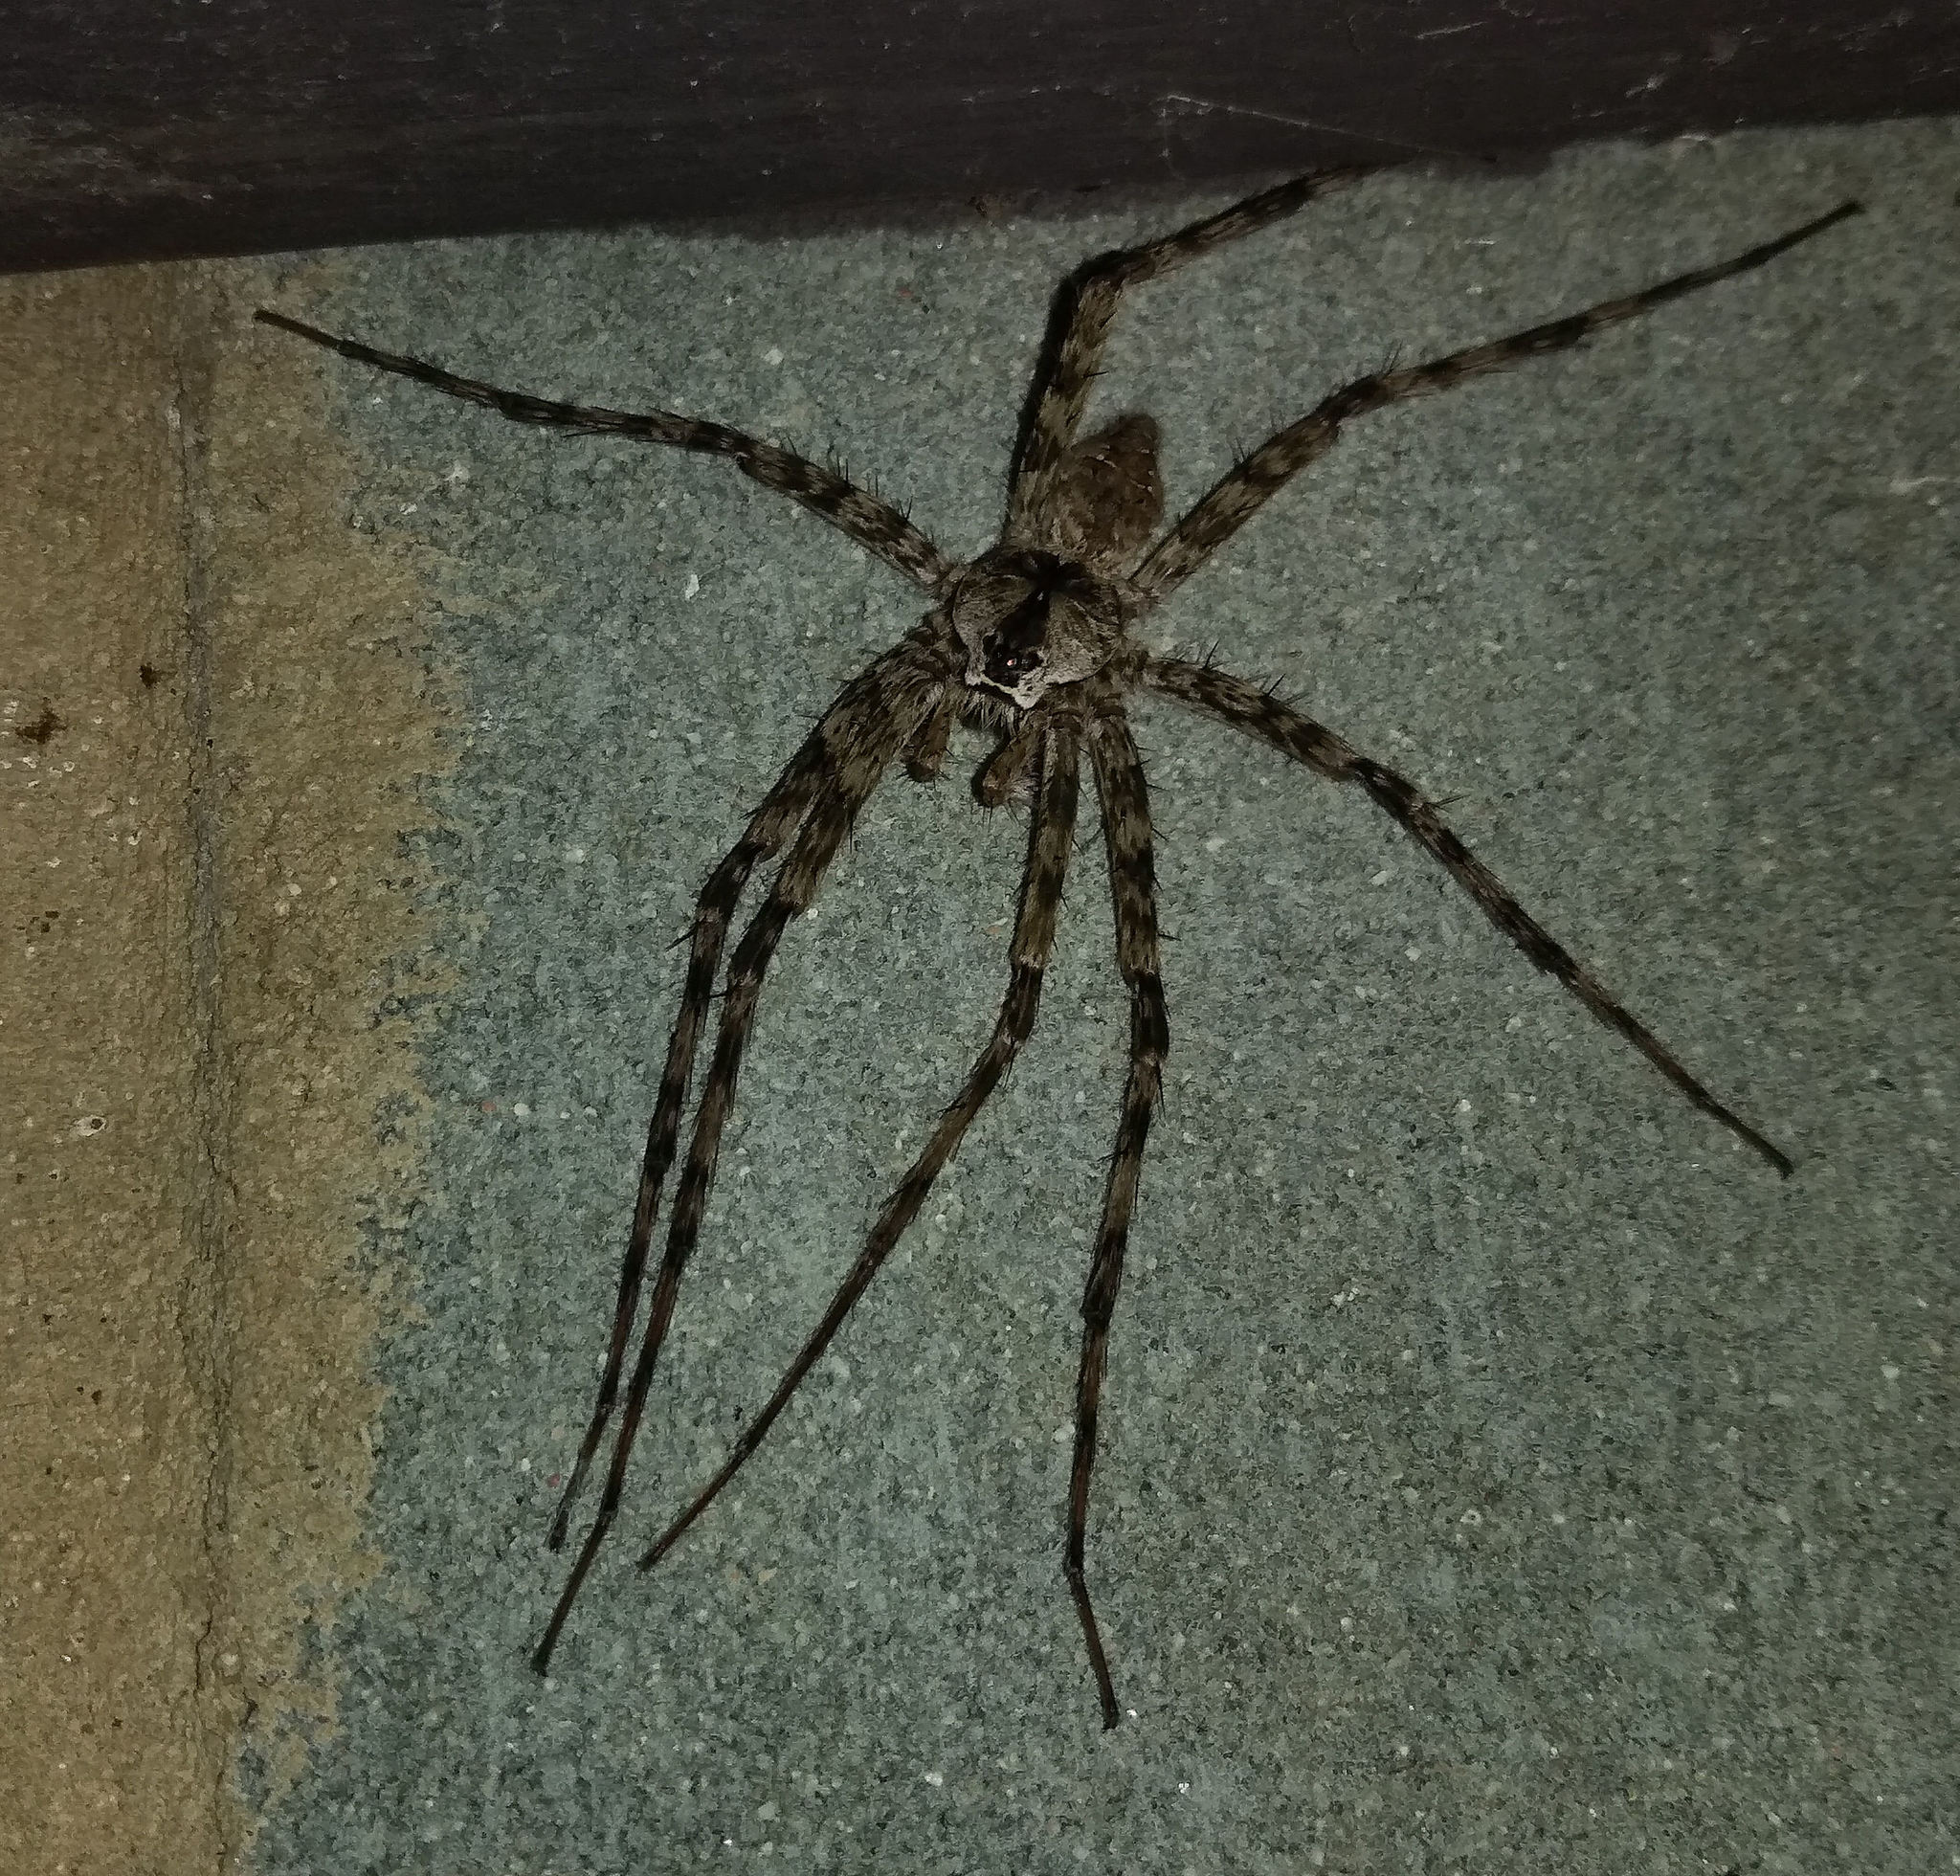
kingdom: Animalia
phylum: Arthropoda
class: Arachnida
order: Araneae
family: Pisauridae
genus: Dolomedes
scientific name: Dolomedes albineus
